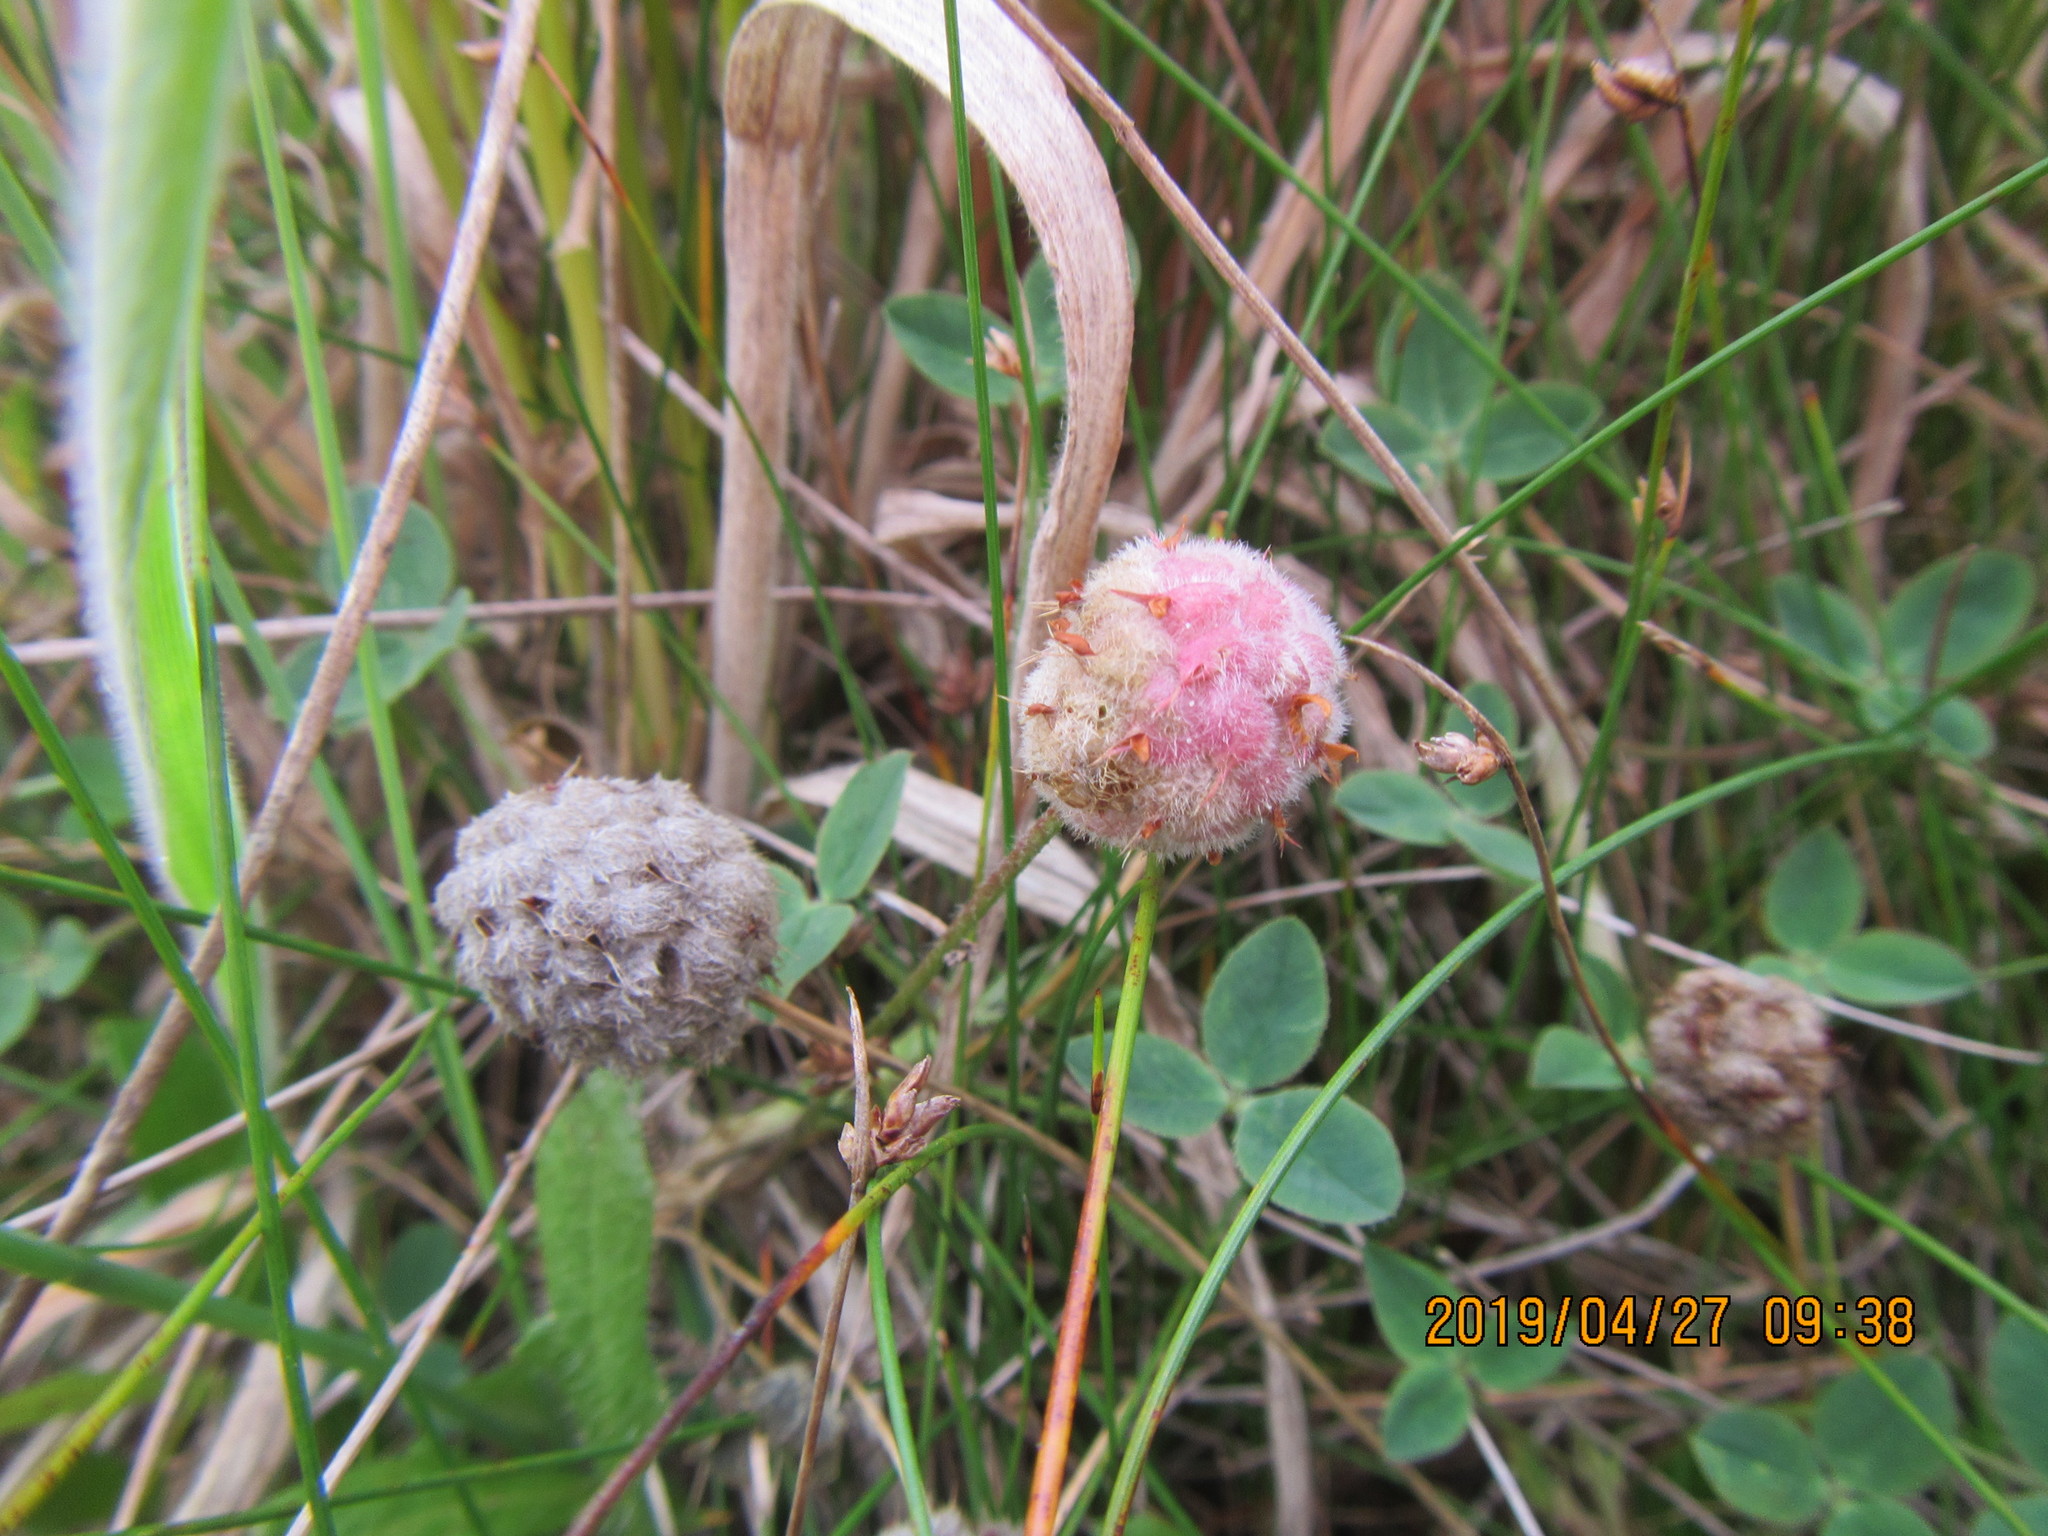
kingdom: Plantae
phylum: Tracheophyta
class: Magnoliopsida
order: Fabales
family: Fabaceae
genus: Trifolium
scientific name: Trifolium fragiferum
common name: Strawberry clover
